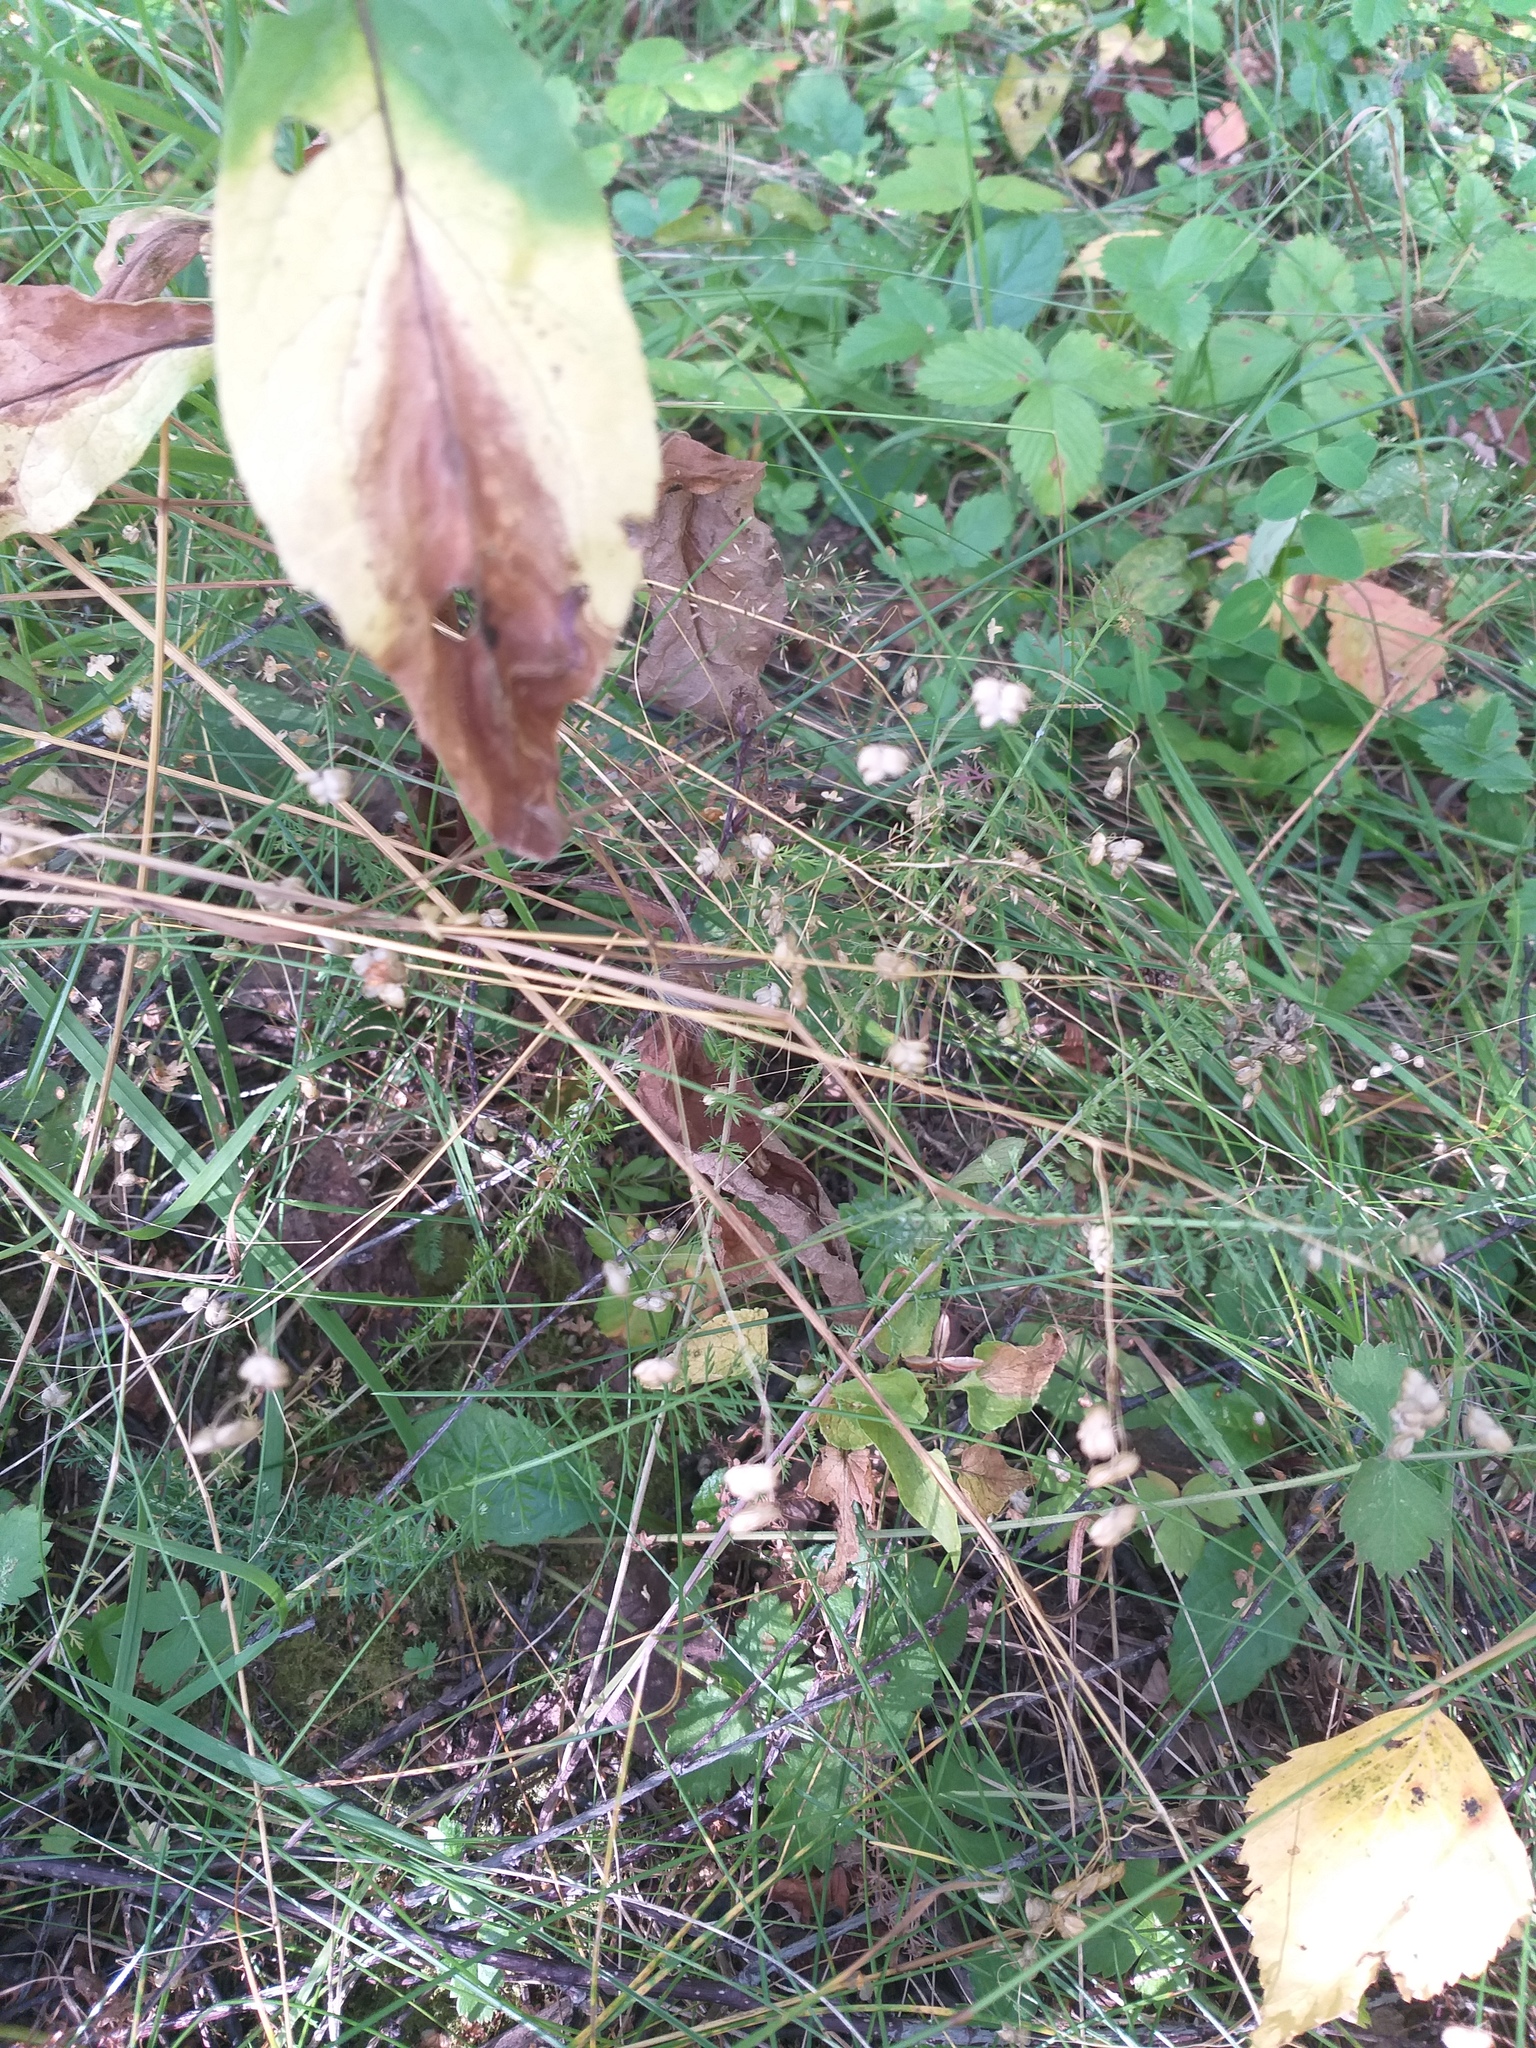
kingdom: Plantae
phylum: Tracheophyta
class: Liliopsida
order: Poales
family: Poaceae
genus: Briza
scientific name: Briza media
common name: Quaking grass
